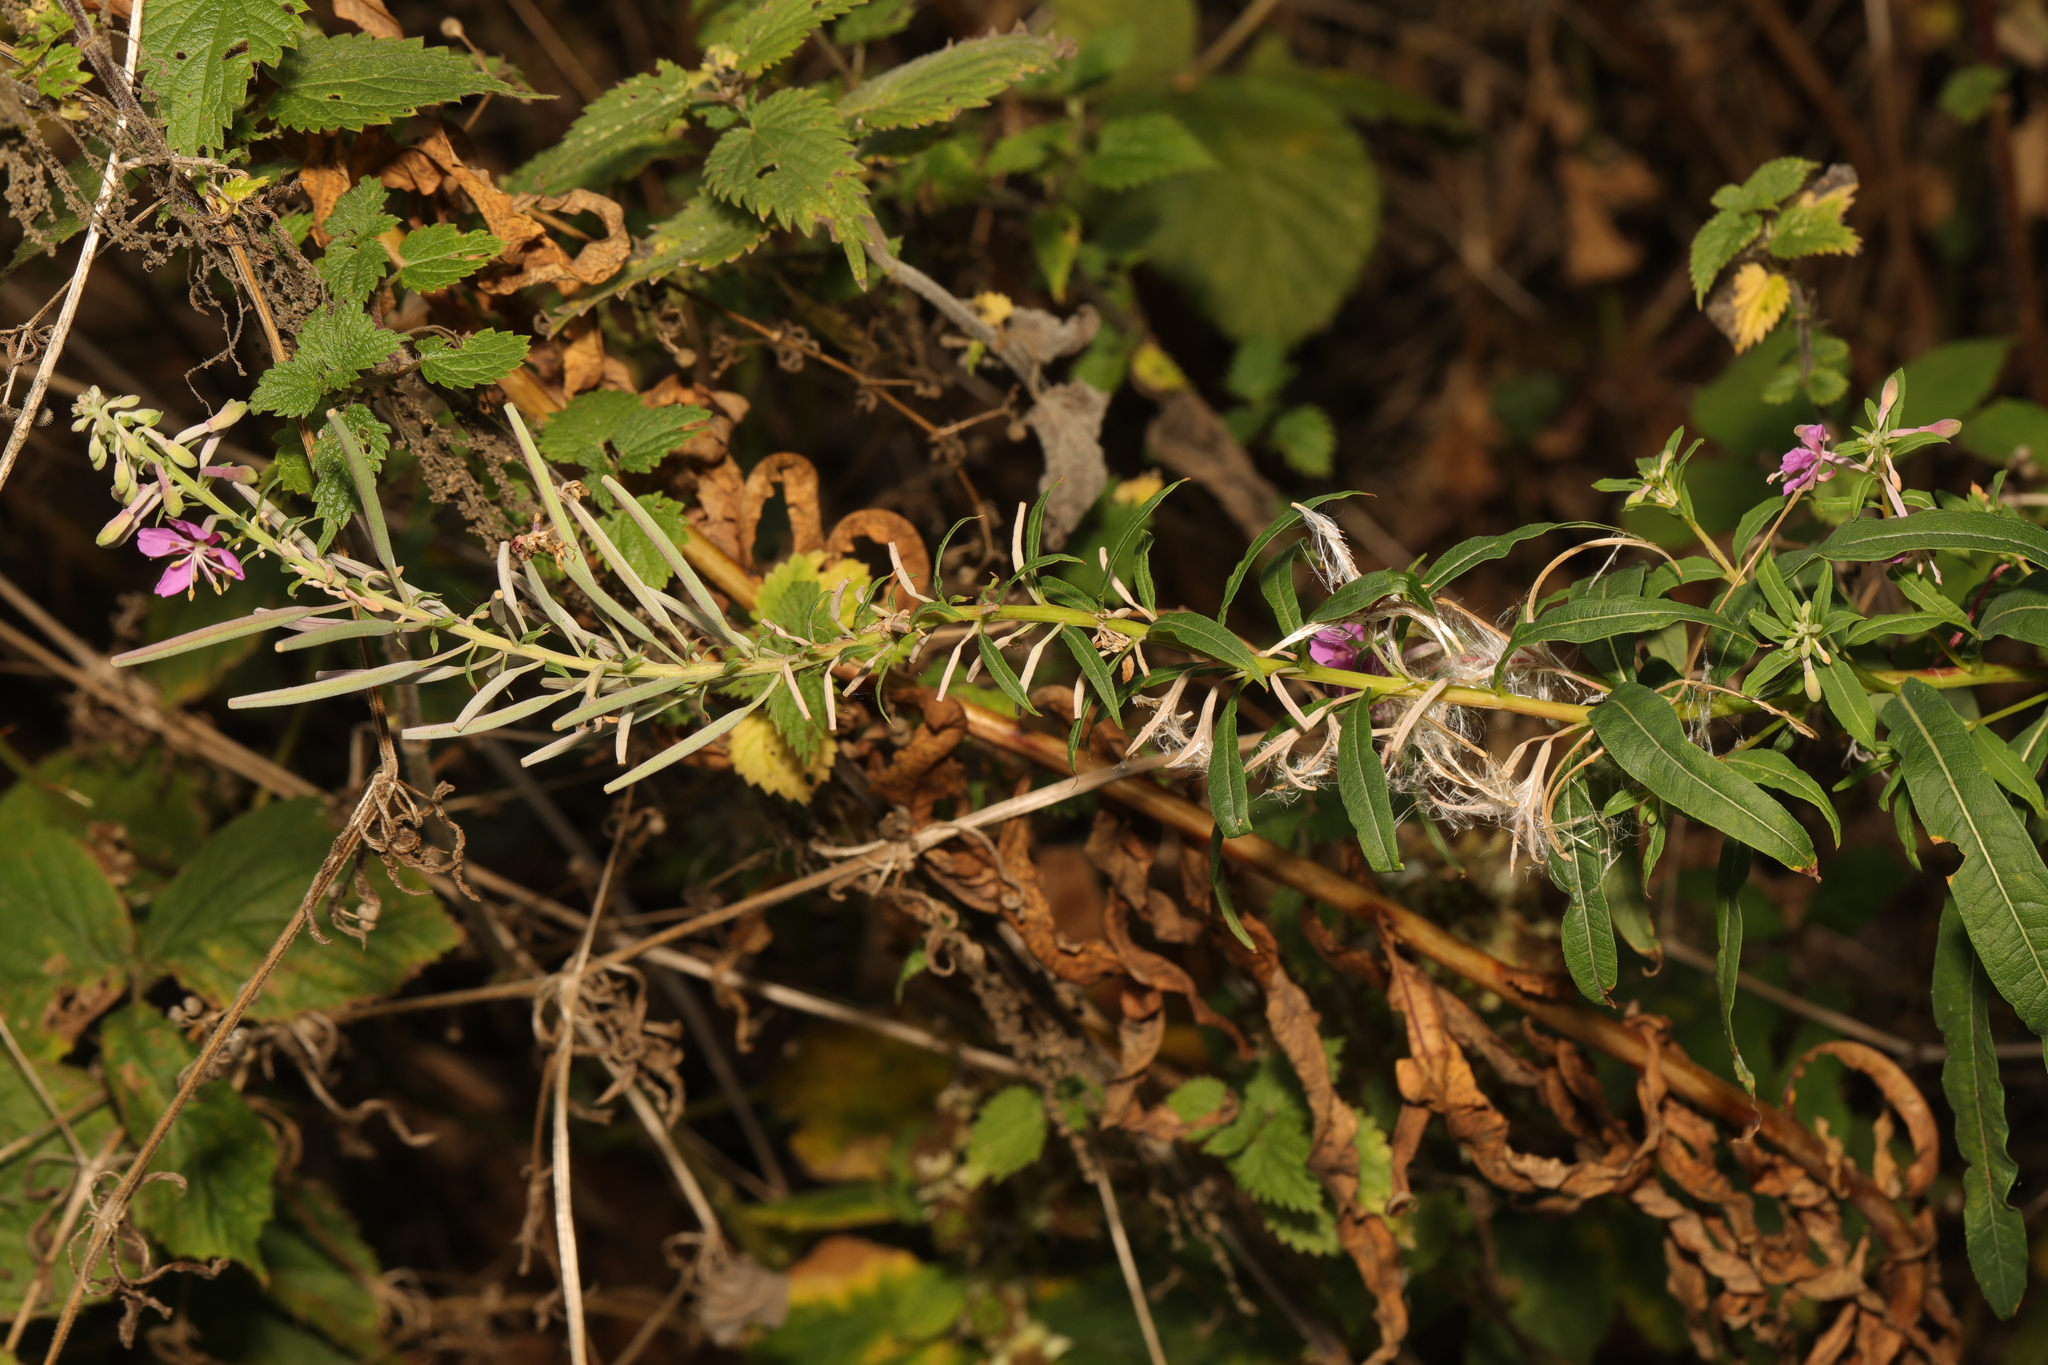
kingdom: Plantae
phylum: Tracheophyta
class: Magnoliopsida
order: Myrtales
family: Onagraceae
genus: Chamaenerion
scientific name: Chamaenerion angustifolium
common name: Fireweed
